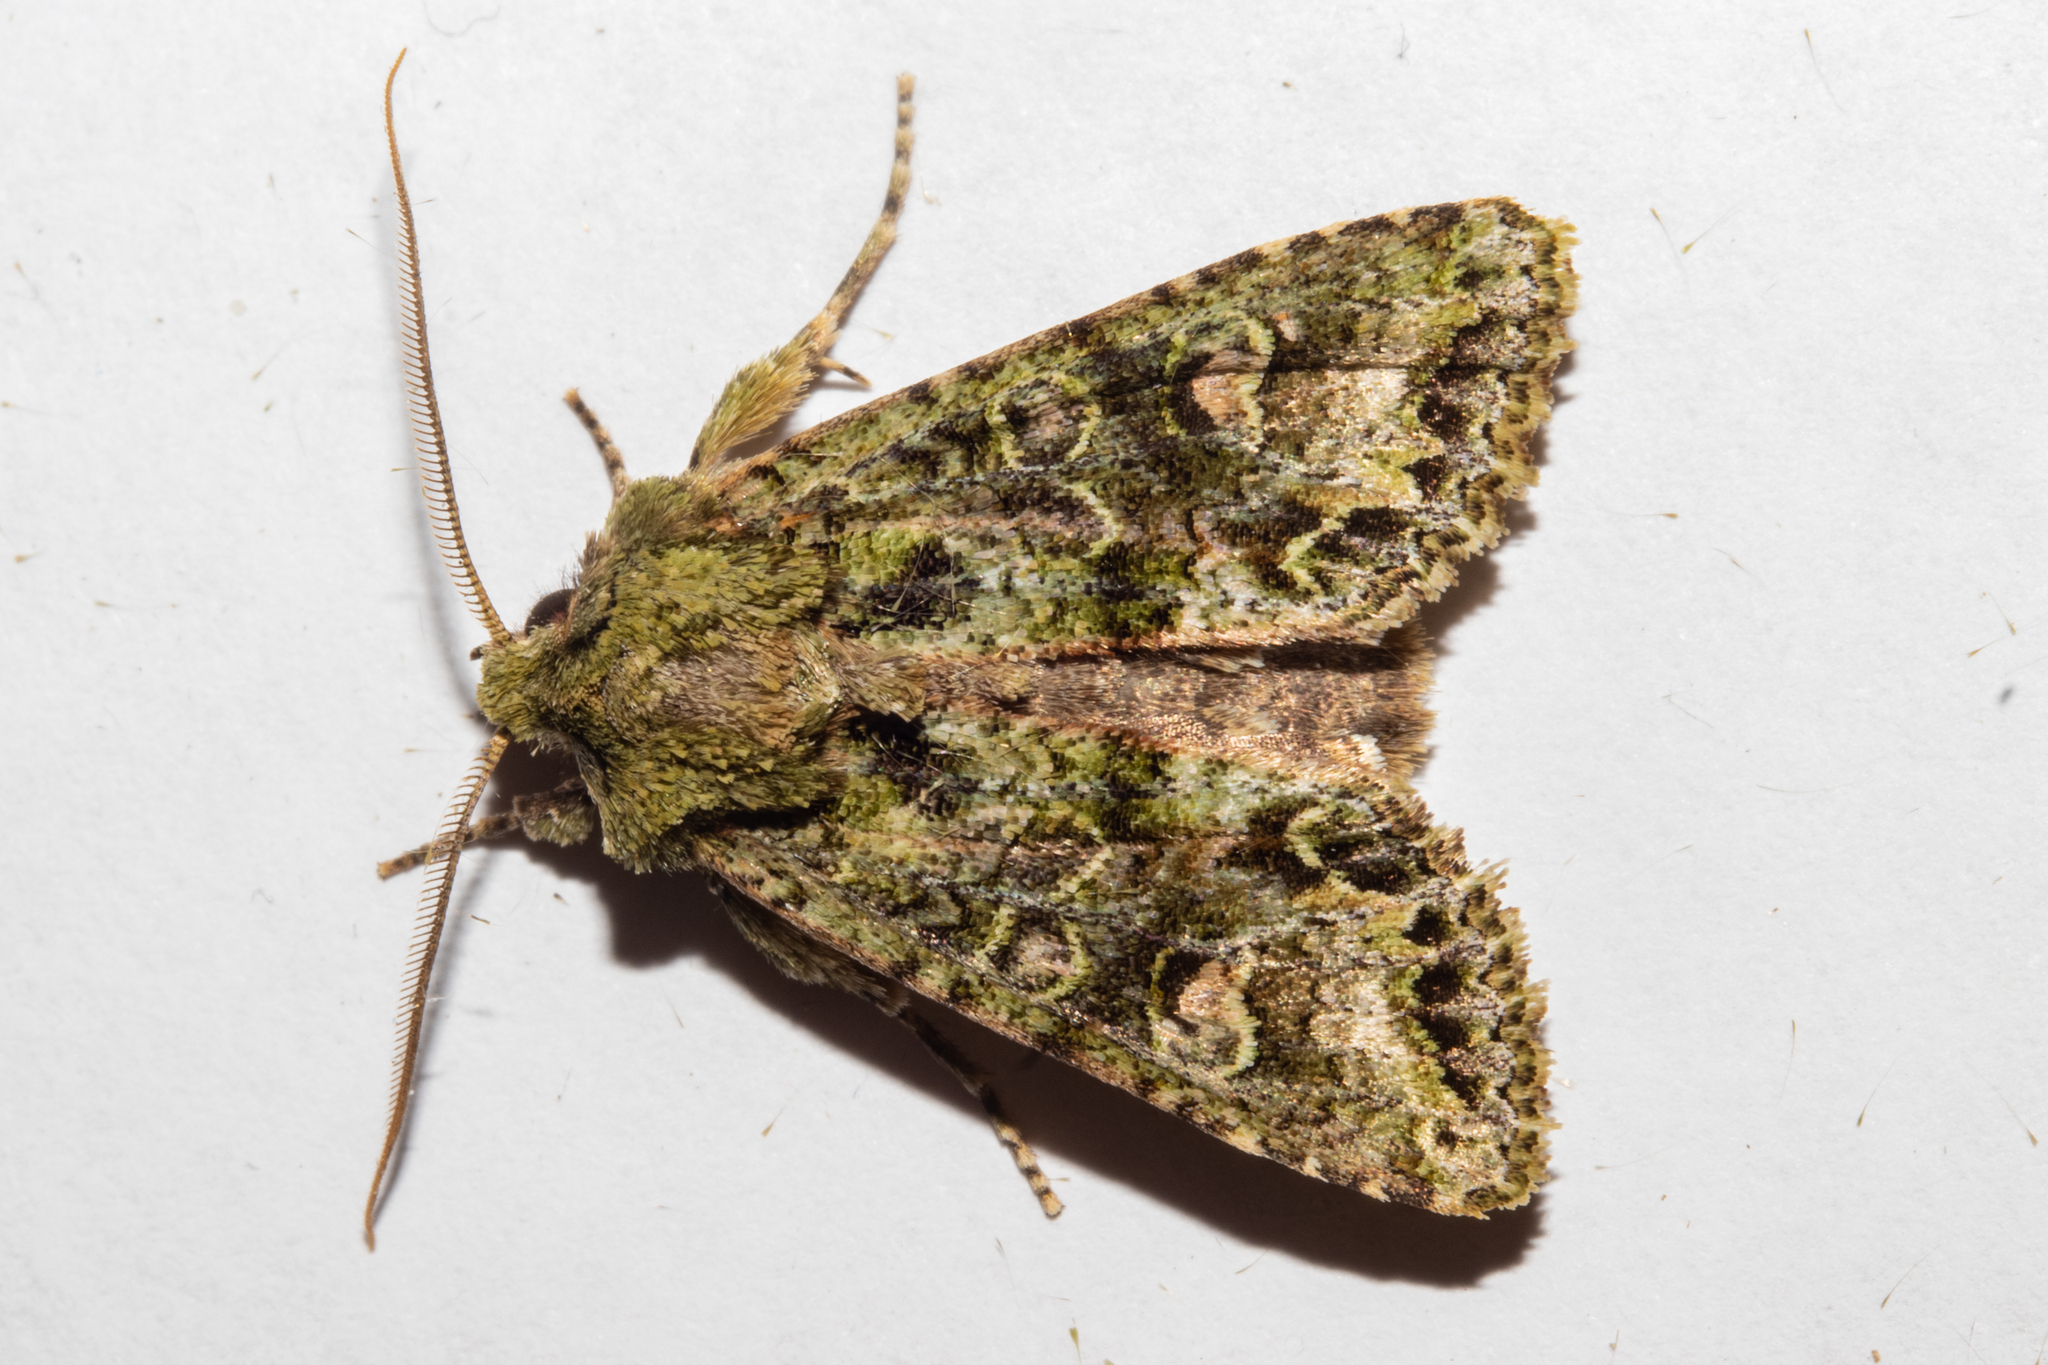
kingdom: Animalia
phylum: Arthropoda
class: Insecta
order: Lepidoptera
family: Noctuidae
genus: Ichneutica
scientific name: Ichneutica
